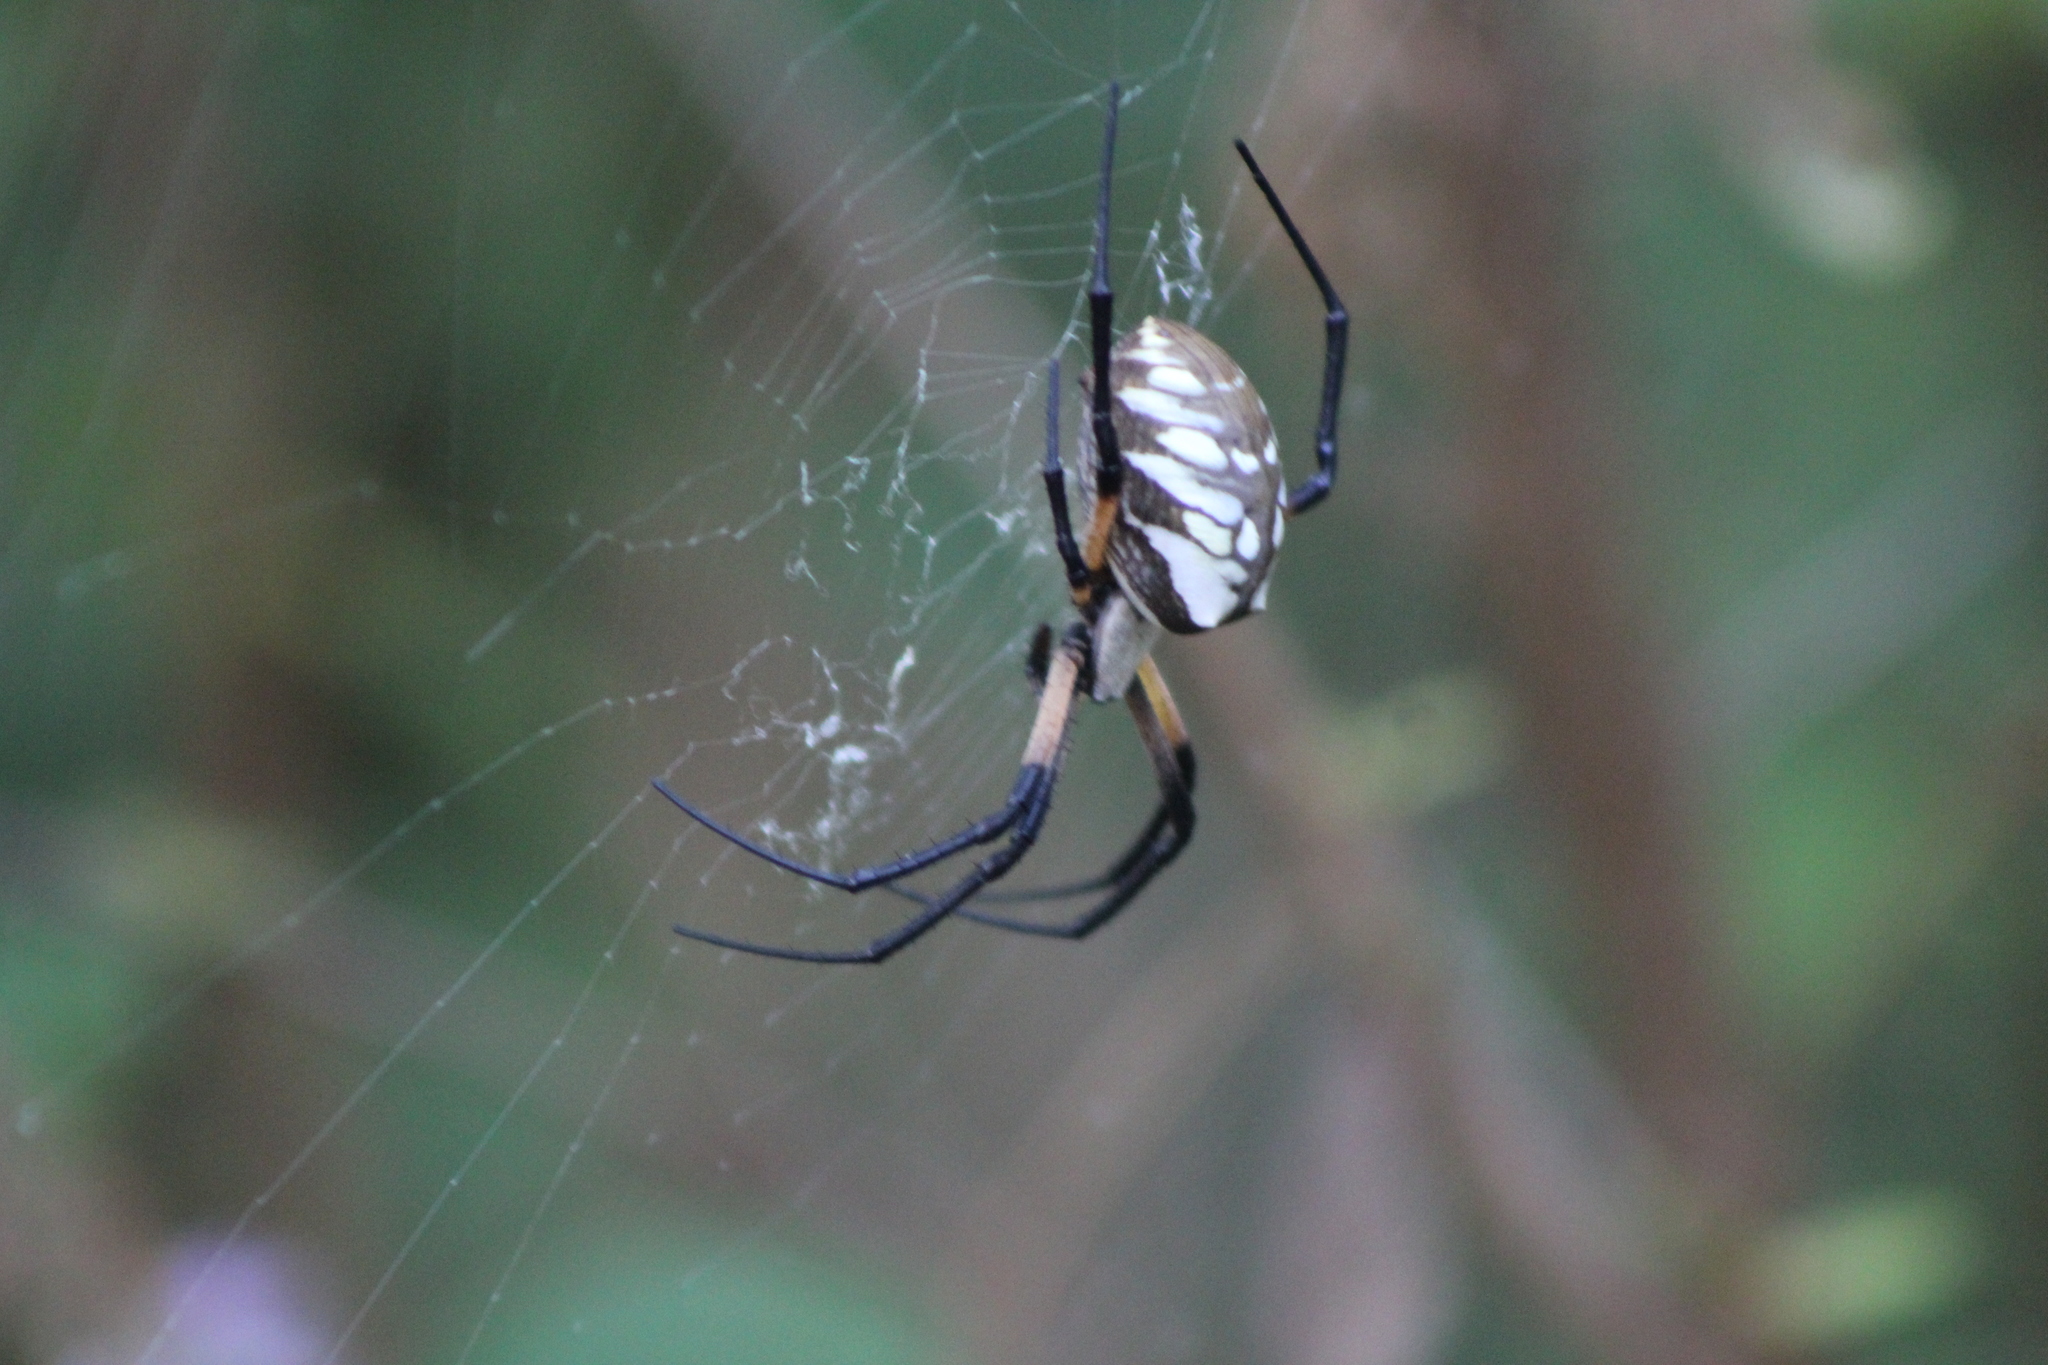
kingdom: Animalia
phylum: Arthropoda
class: Arachnida
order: Araneae
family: Araneidae
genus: Argiope
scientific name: Argiope aurantia
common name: Orb weavers
